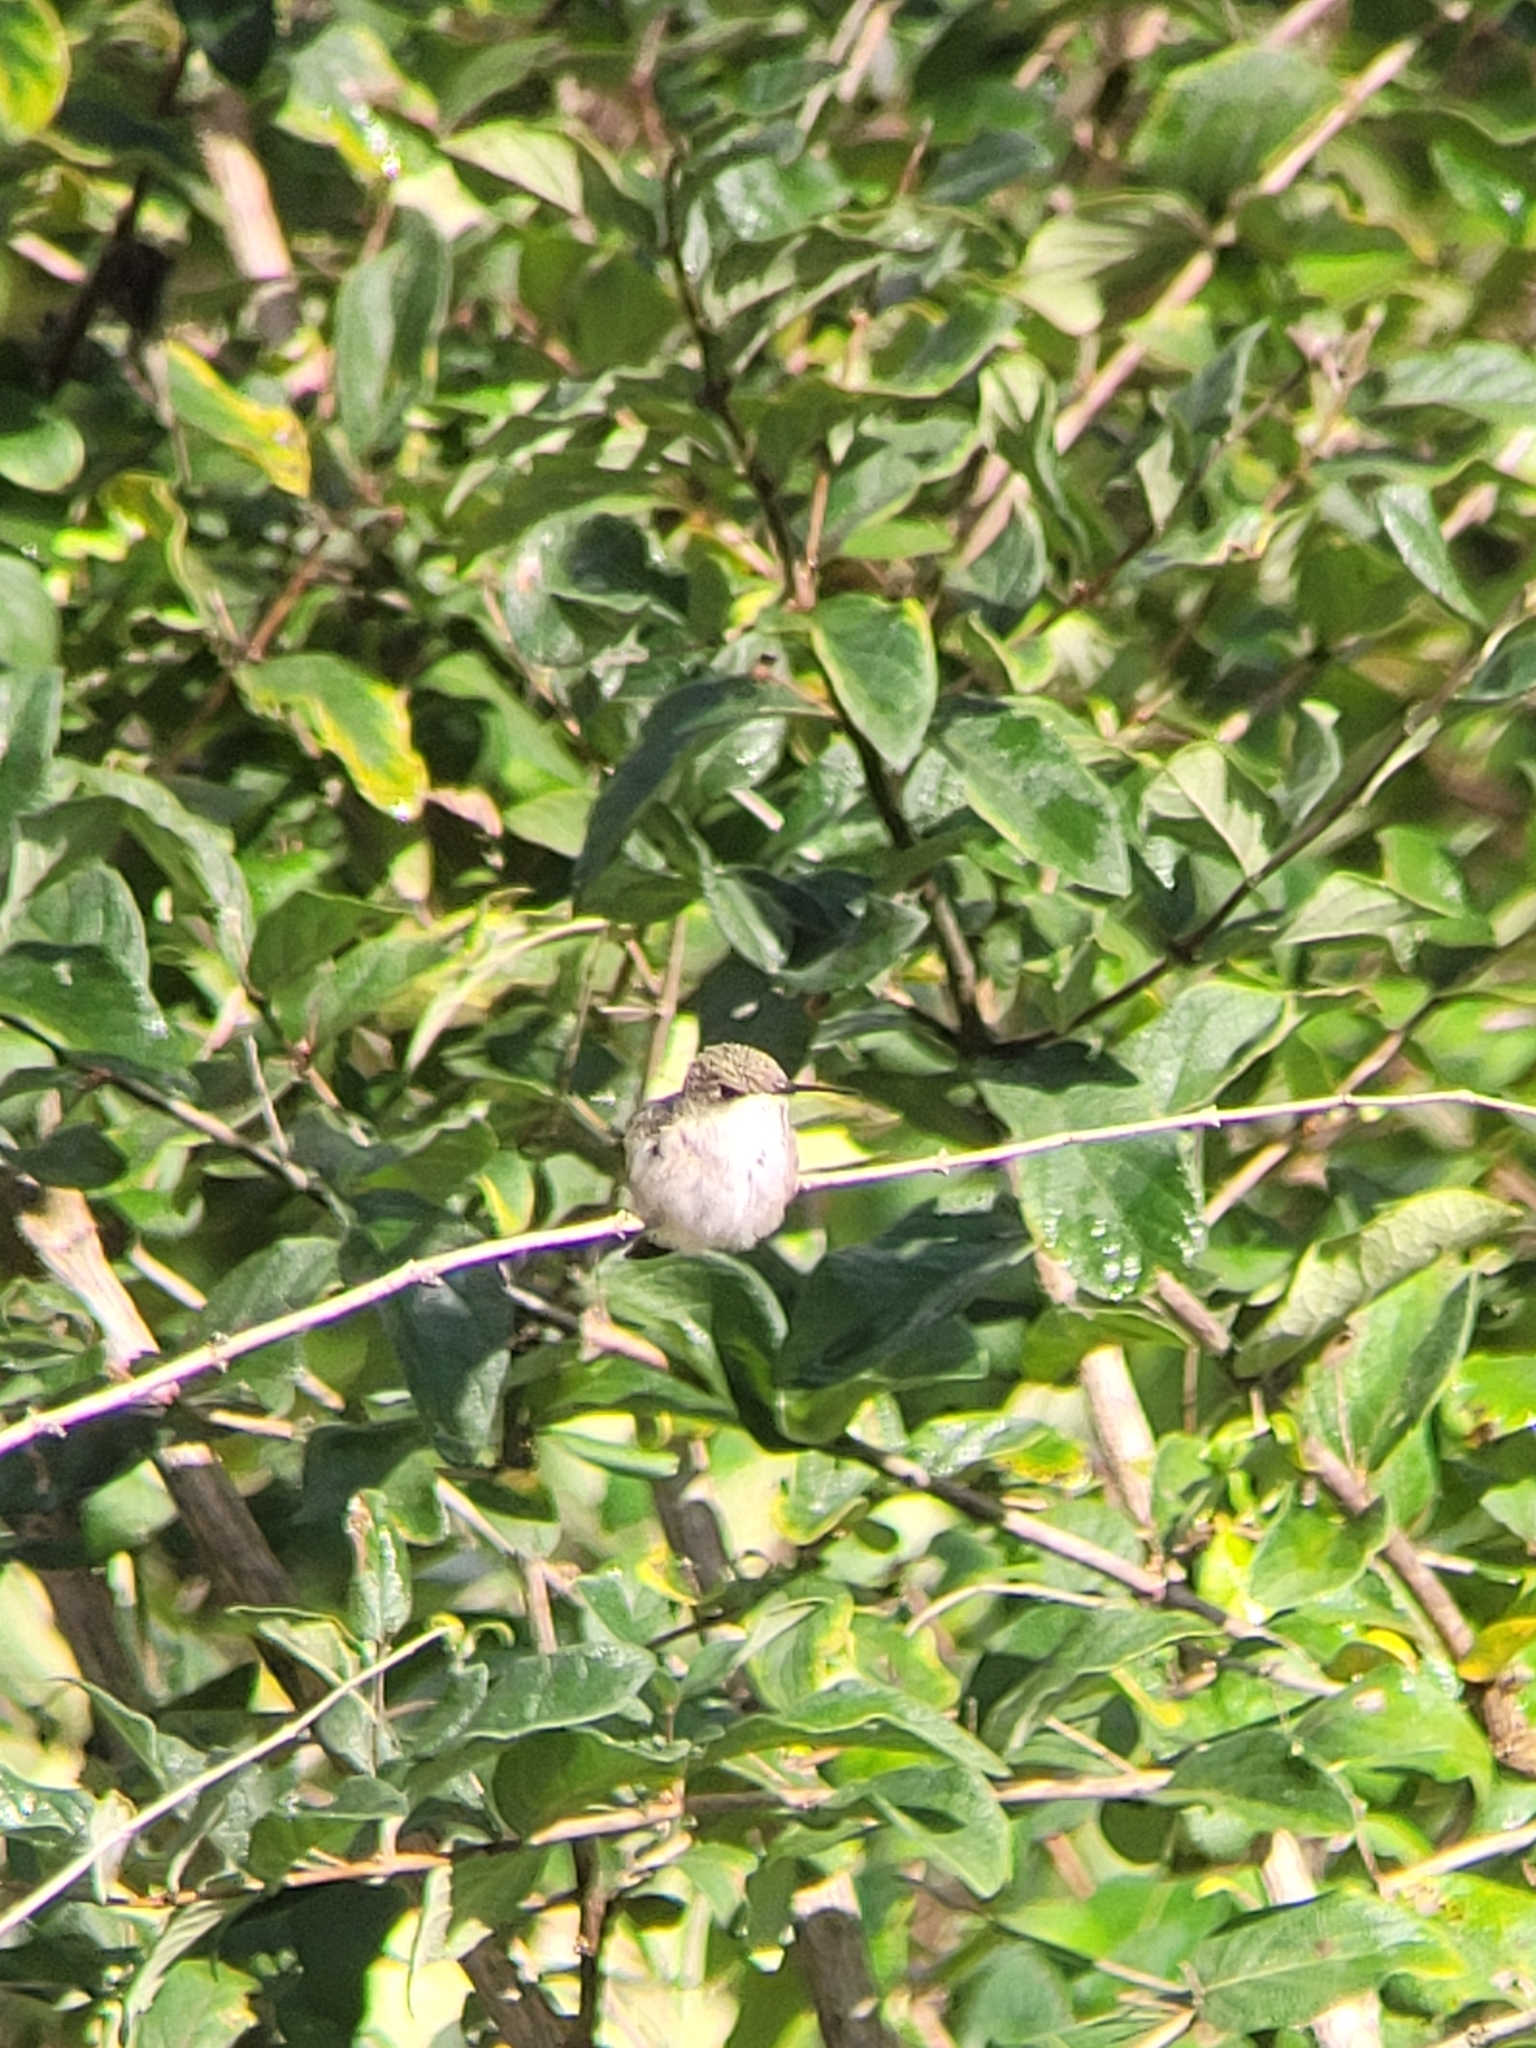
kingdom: Animalia
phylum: Chordata
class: Aves
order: Apodiformes
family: Trochilidae
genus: Archilochus
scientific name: Archilochus colubris
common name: Ruby-throated hummingbird
